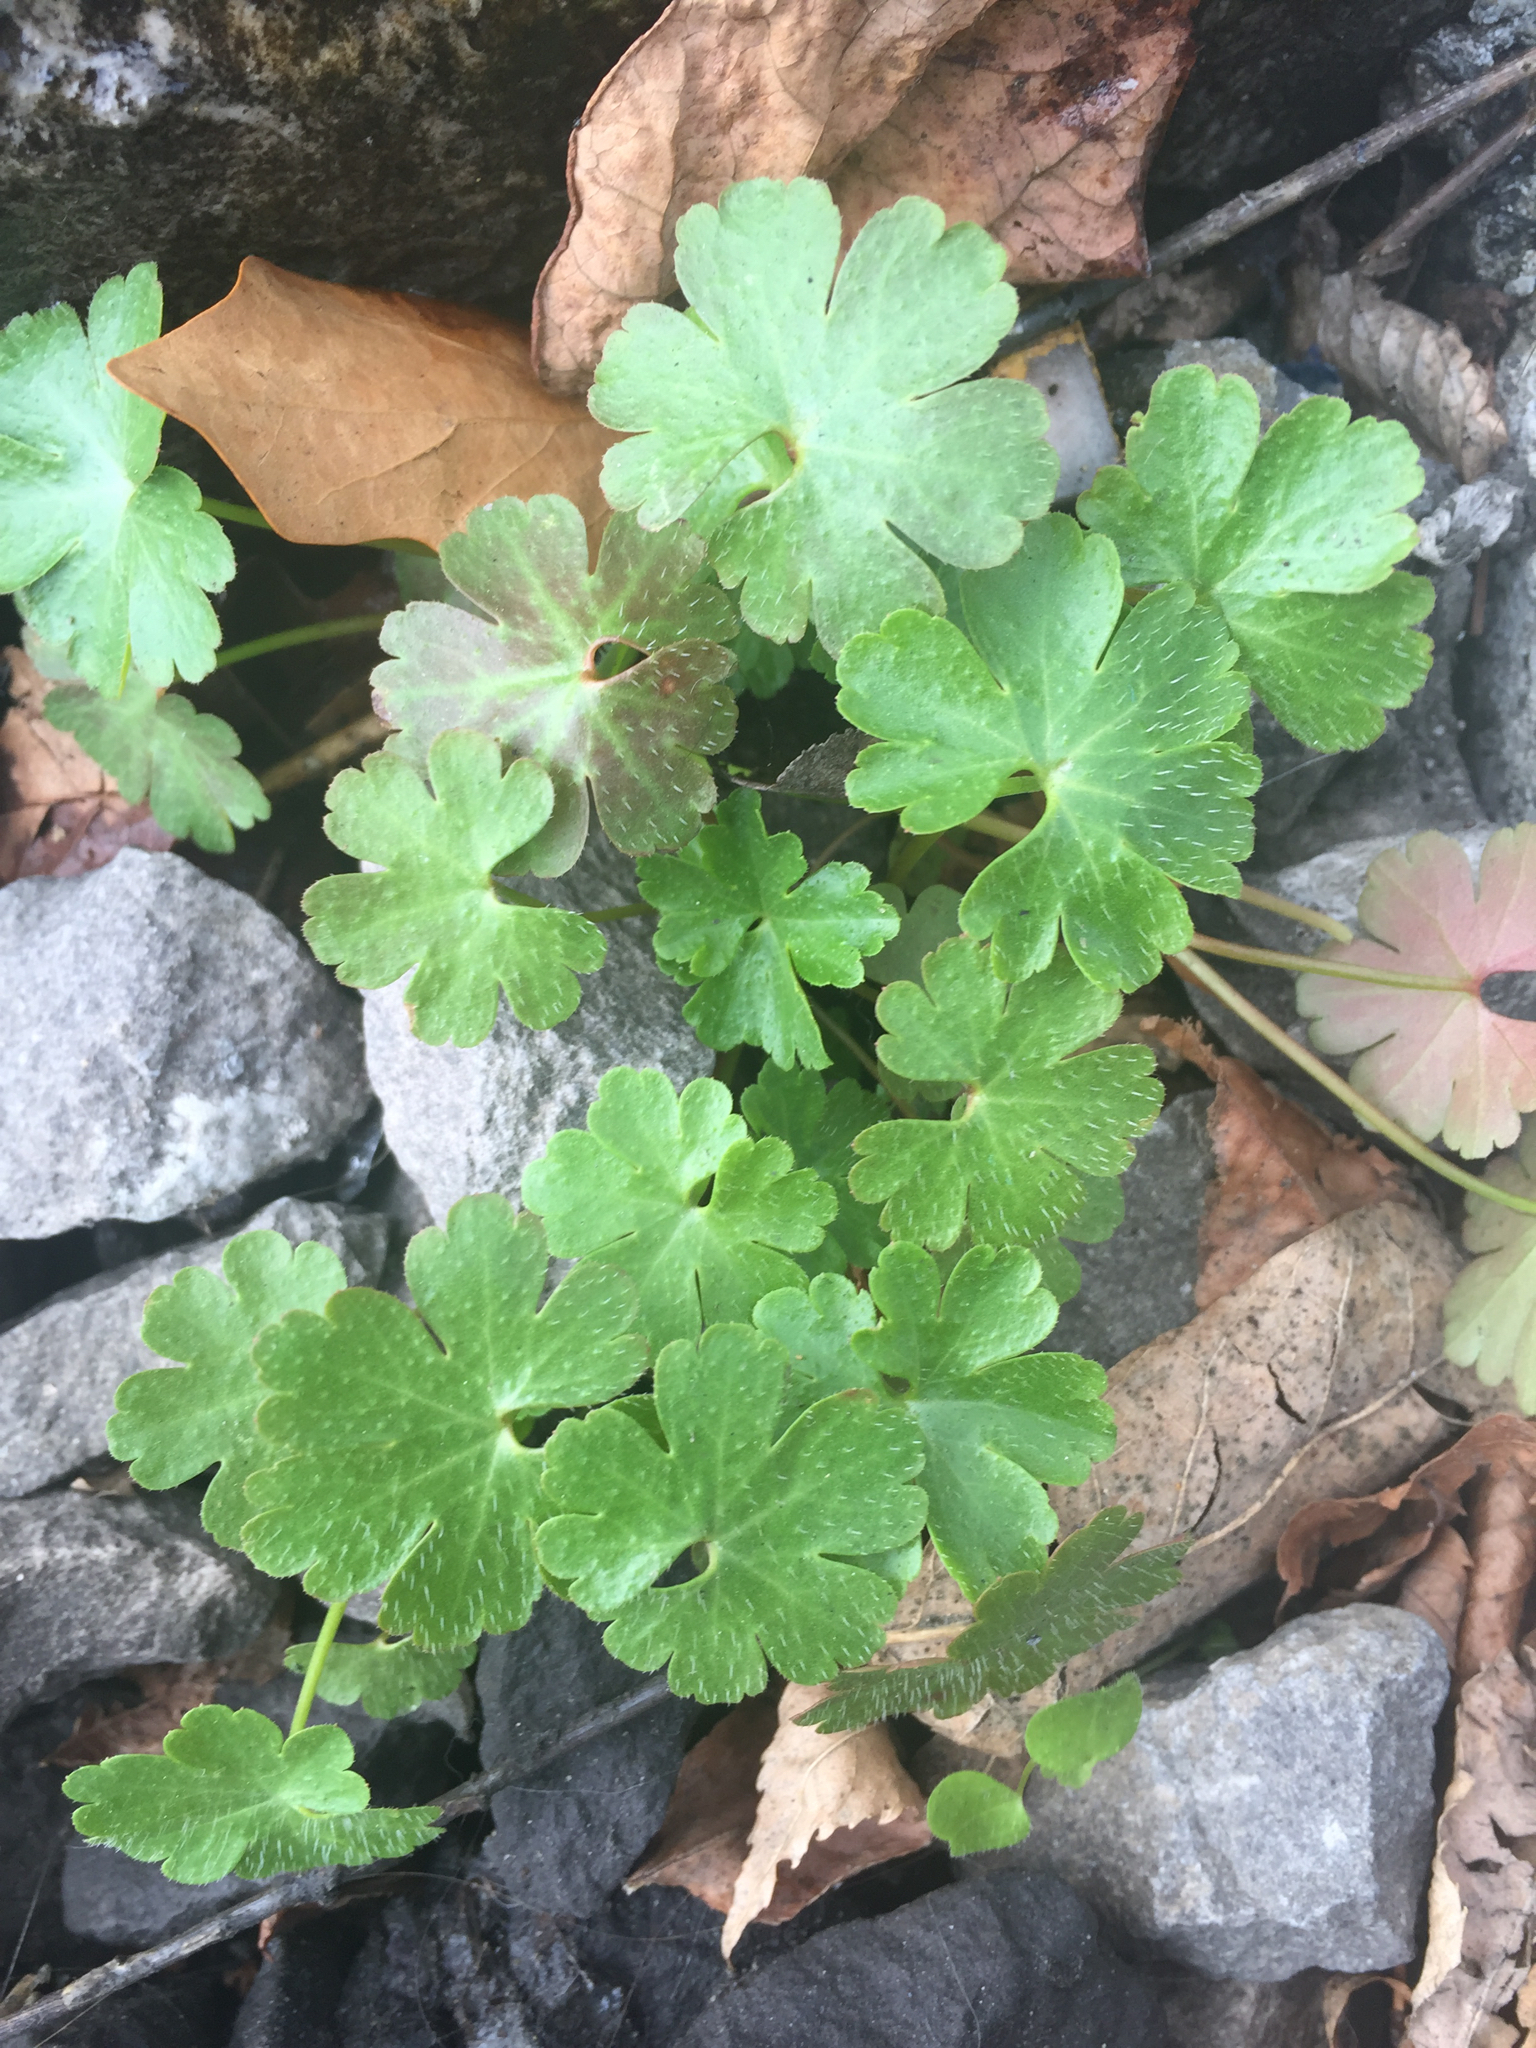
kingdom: Plantae
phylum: Tracheophyta
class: Magnoliopsida
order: Geraniales
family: Geraniaceae
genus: Geranium
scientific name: Geranium lucidum
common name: Shining crane's-bill
